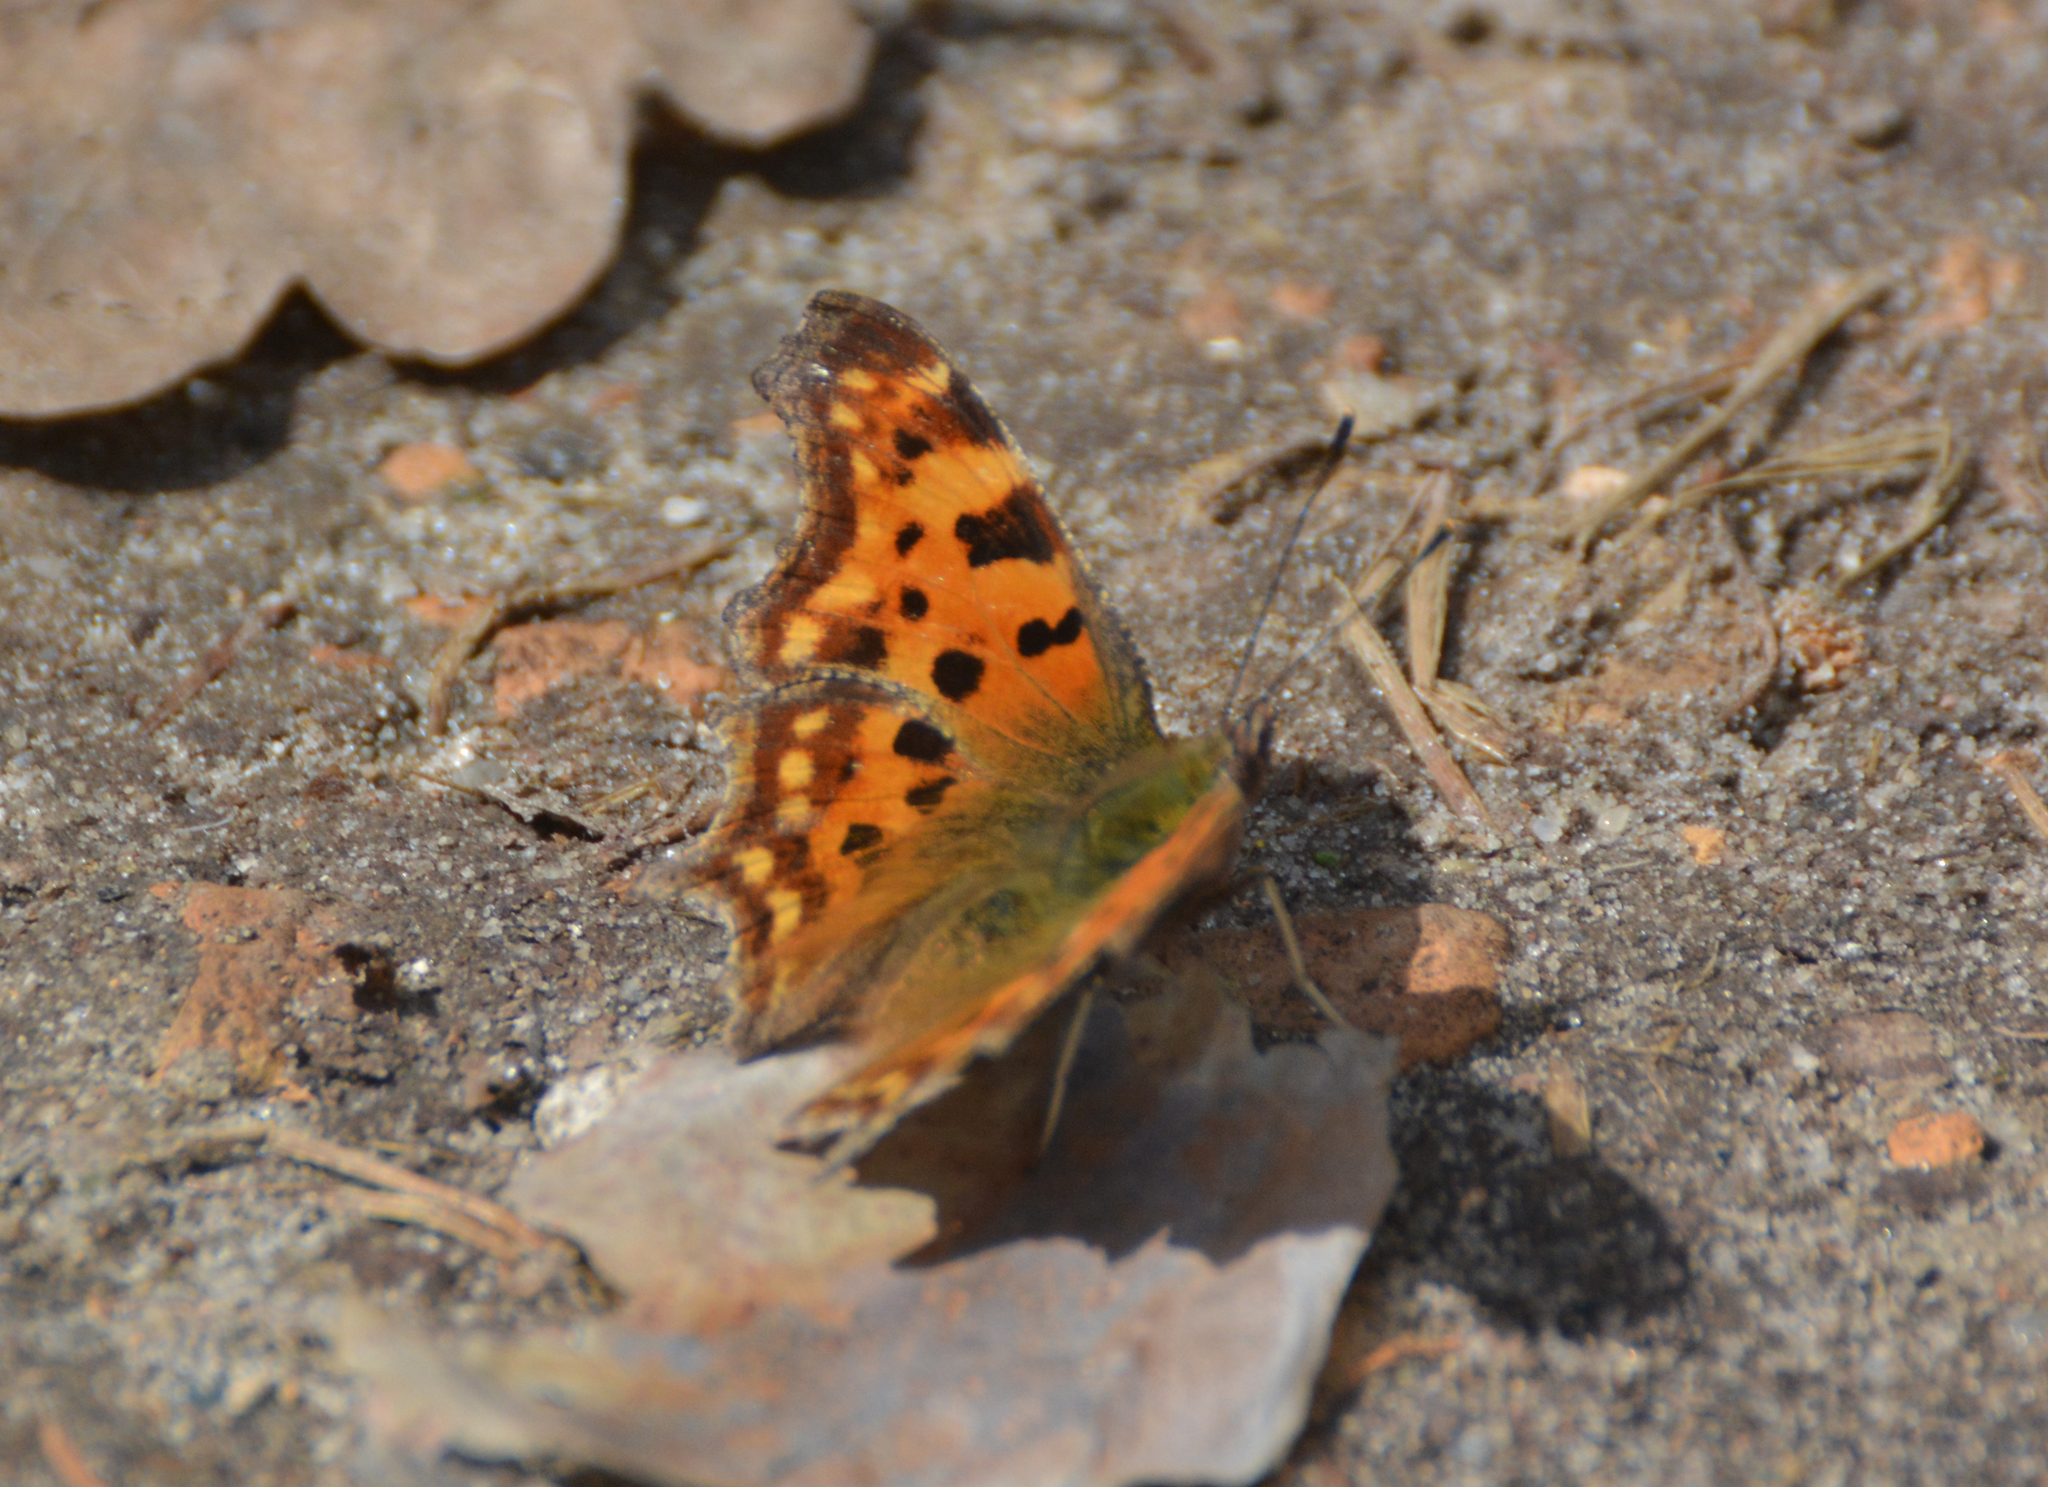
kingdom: Animalia
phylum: Arthropoda
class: Insecta
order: Lepidoptera
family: Nymphalidae
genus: Polygonia
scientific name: Polygonia c-album
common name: Comma
